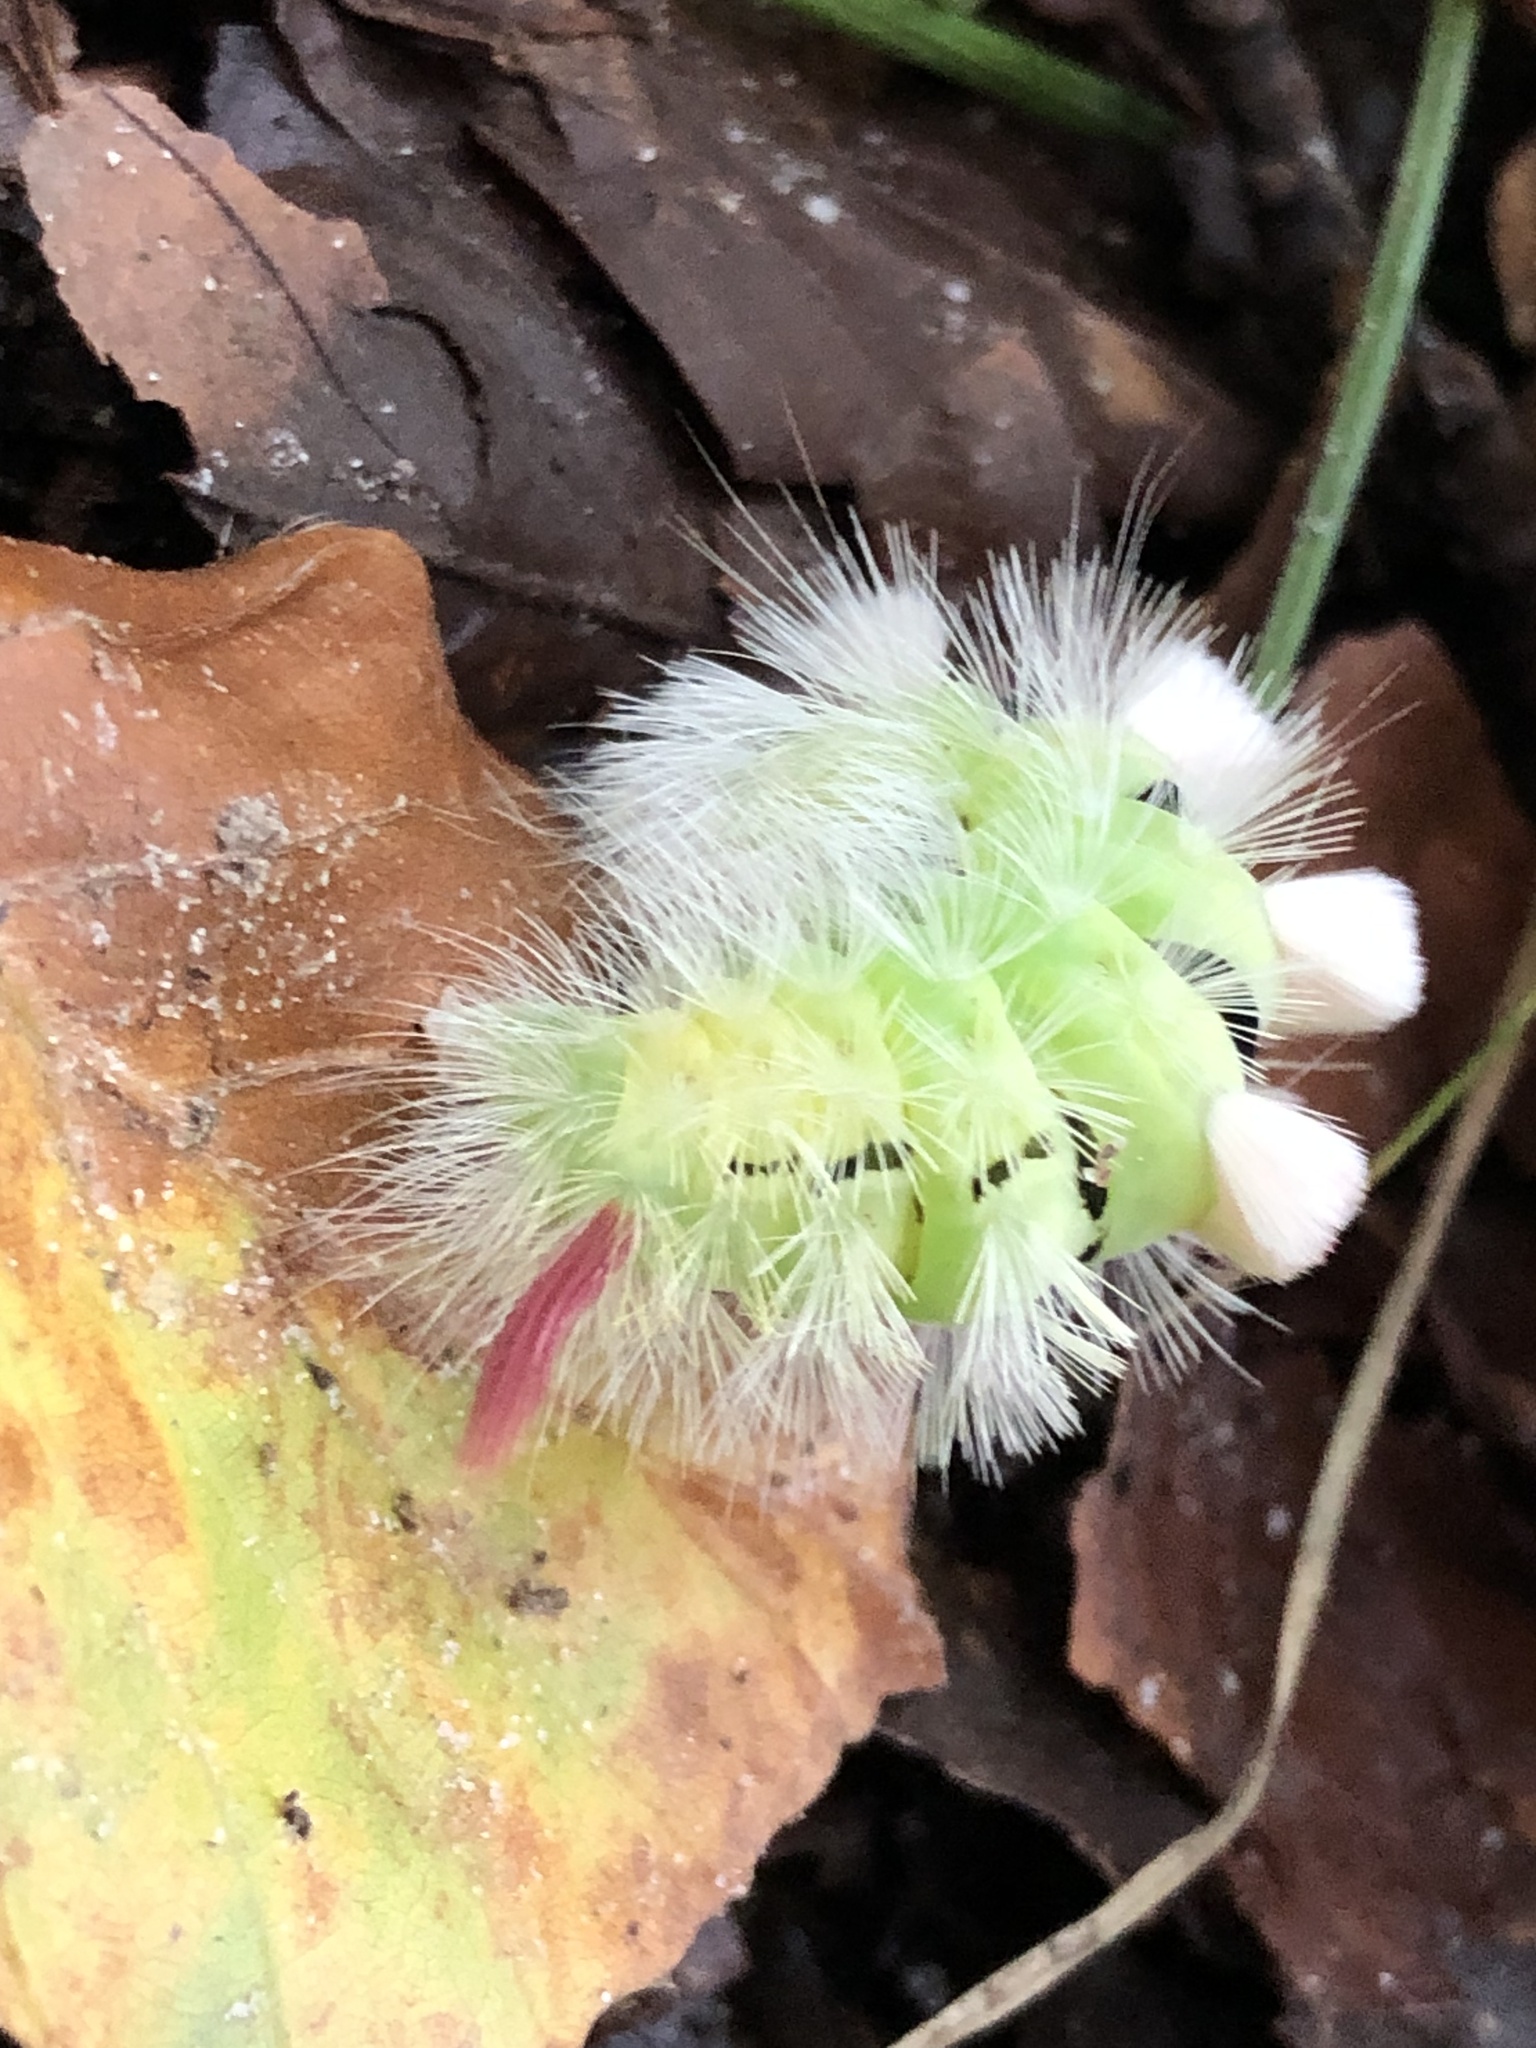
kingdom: Animalia
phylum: Arthropoda
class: Insecta
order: Lepidoptera
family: Erebidae
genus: Calliteara
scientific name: Calliteara pudibunda
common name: Pale tussock
